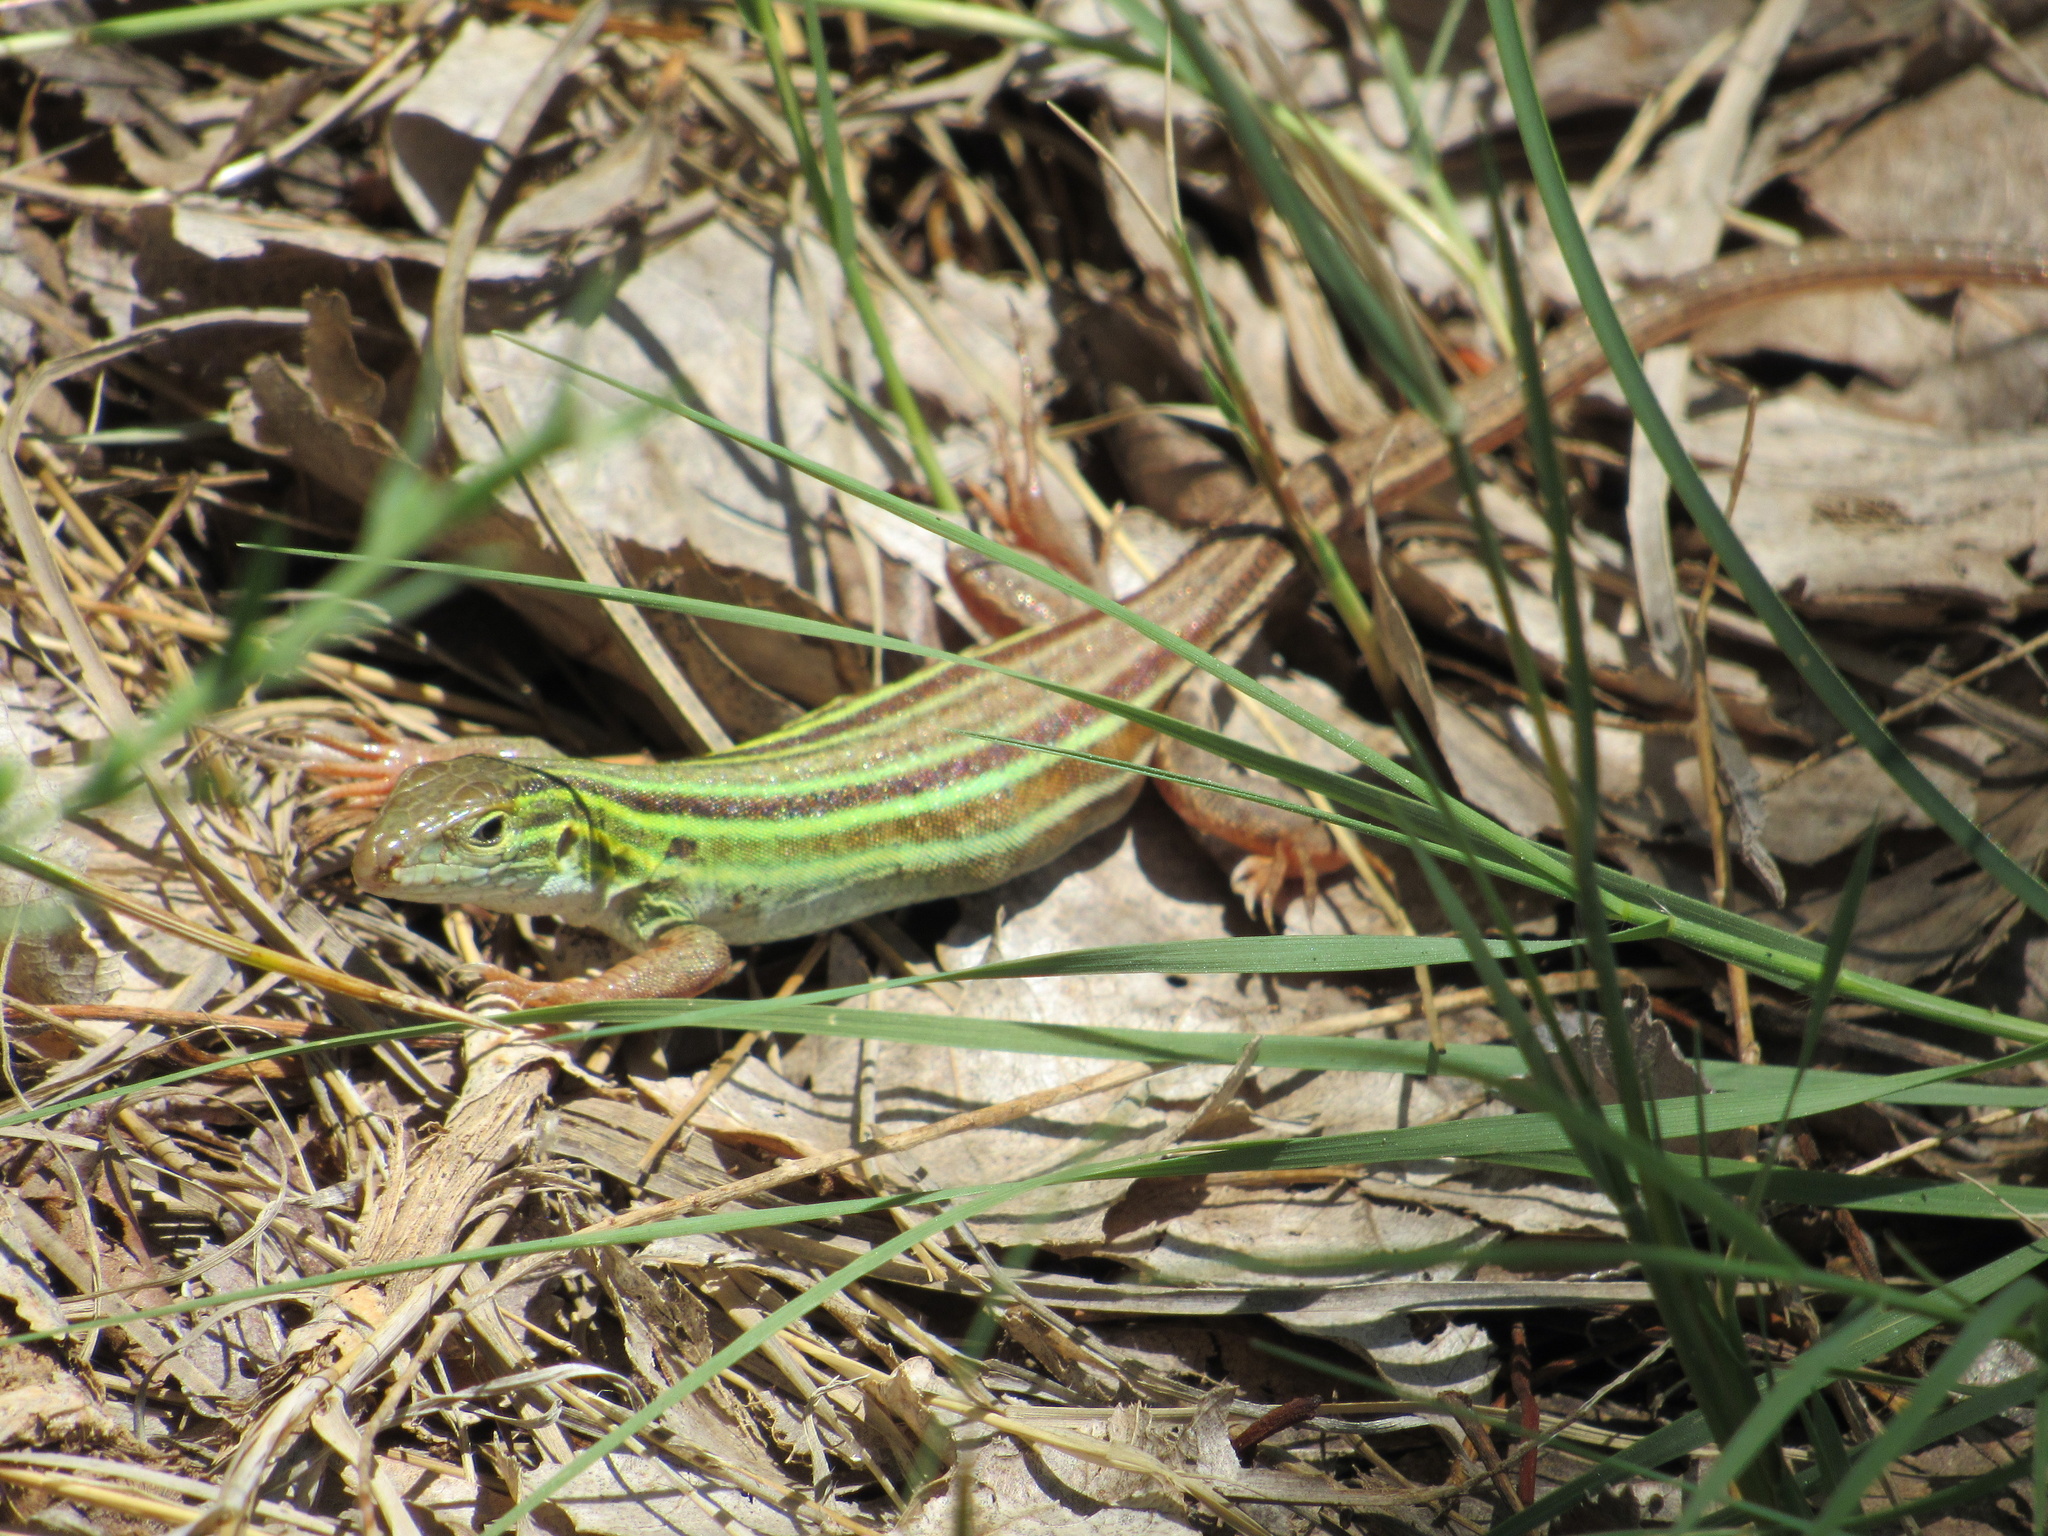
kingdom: Animalia
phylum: Chordata
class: Squamata
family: Teiidae
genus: Aspidoscelis
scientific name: Aspidoscelis sexlineatus
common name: Six-lined racerunner
